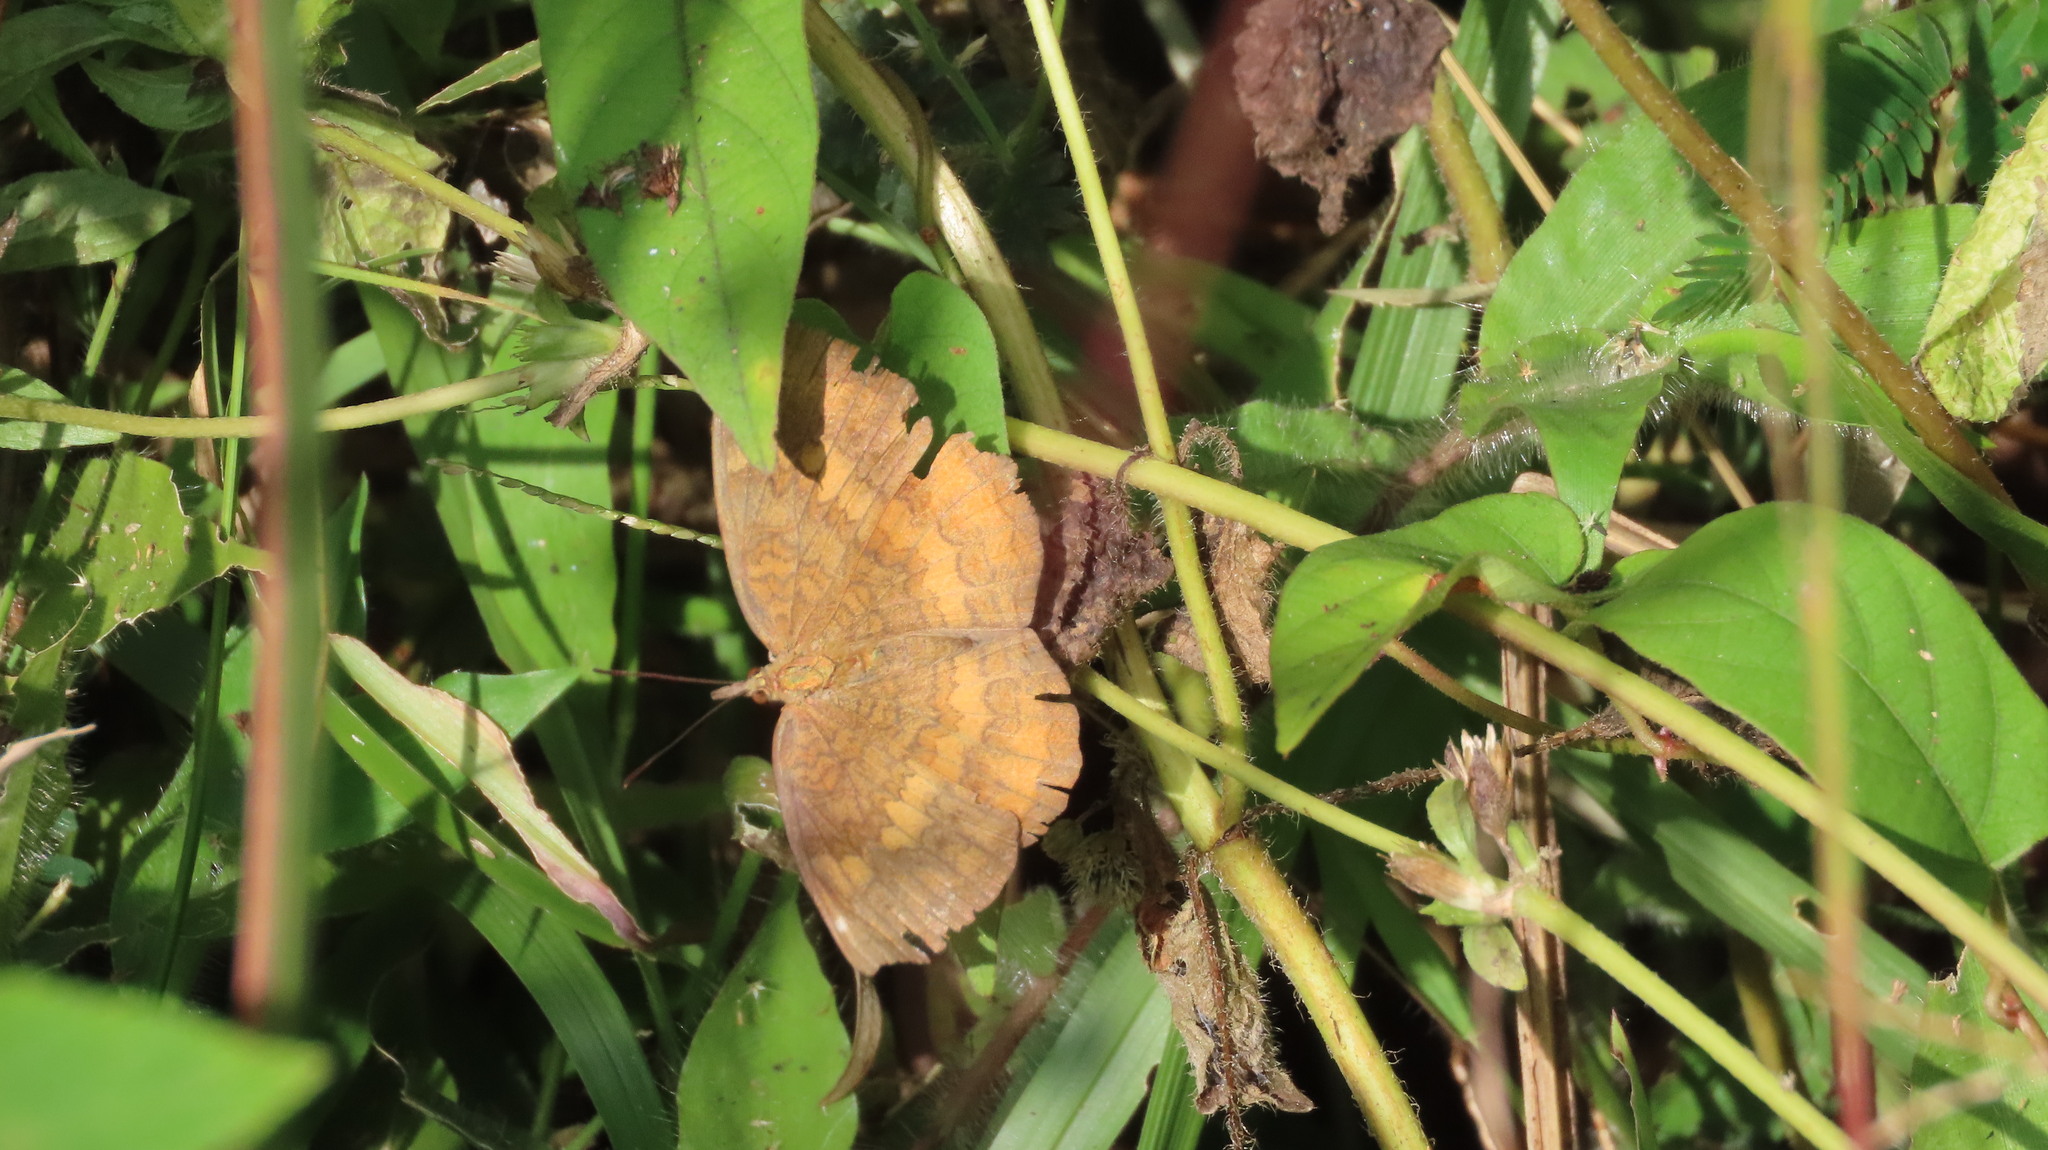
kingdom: Animalia
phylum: Arthropoda
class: Insecta
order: Lepidoptera
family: Nymphalidae
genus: Ariadne
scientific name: Ariadne merione
